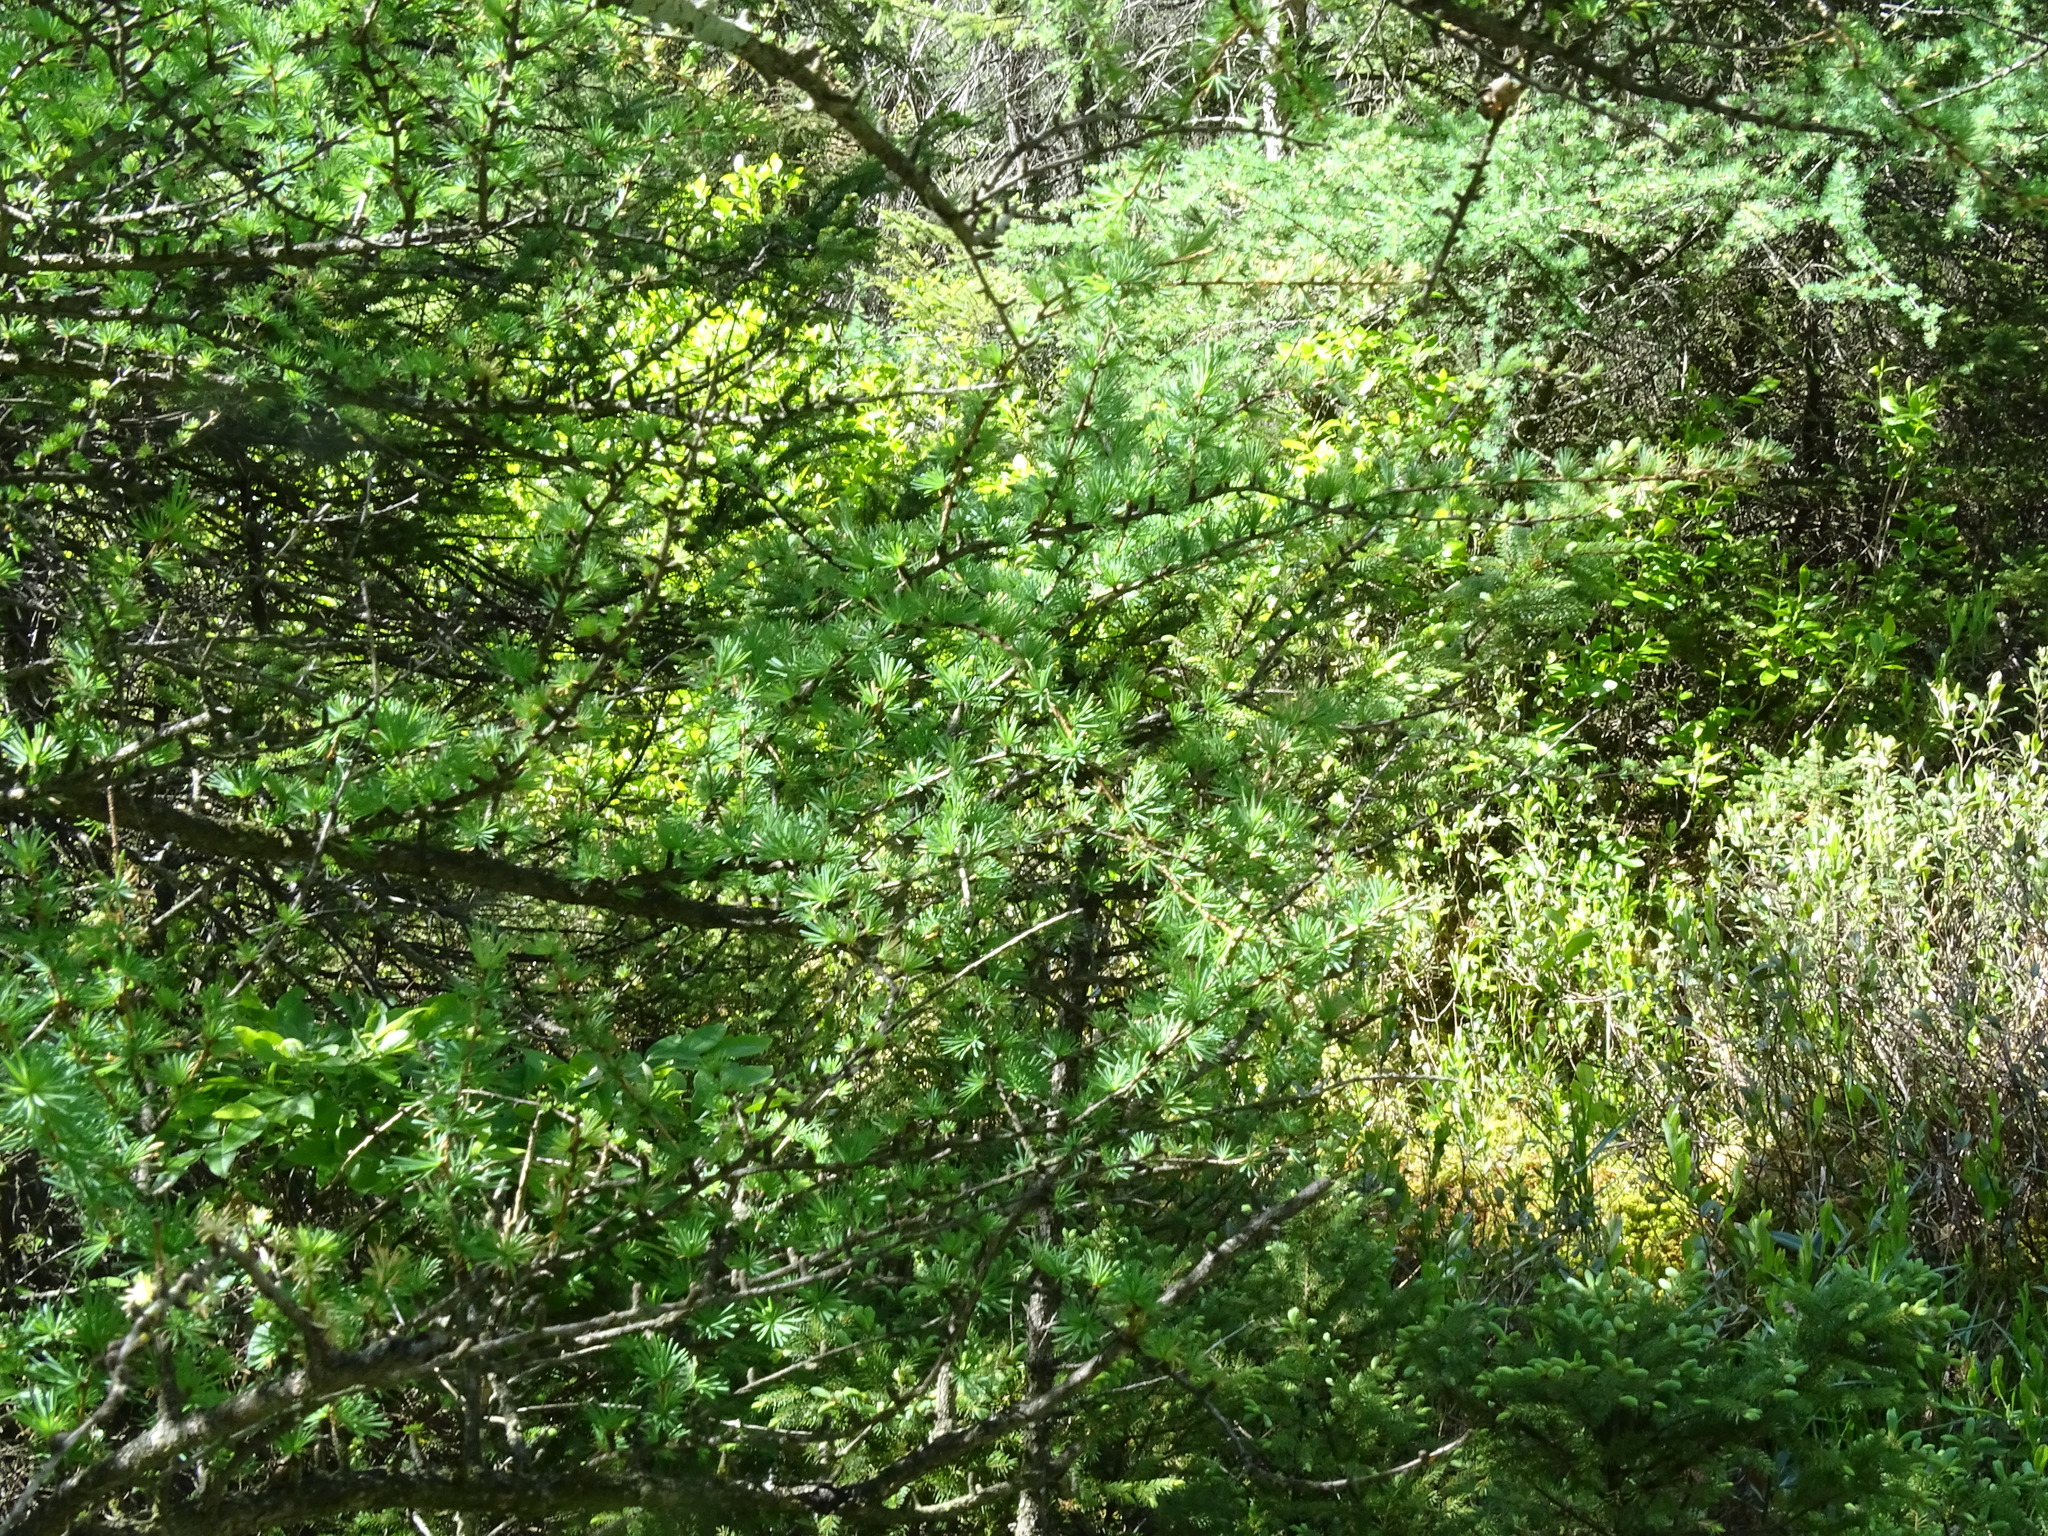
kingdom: Plantae
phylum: Tracheophyta
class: Pinopsida
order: Pinales
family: Pinaceae
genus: Larix
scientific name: Larix laricina
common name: American larch
